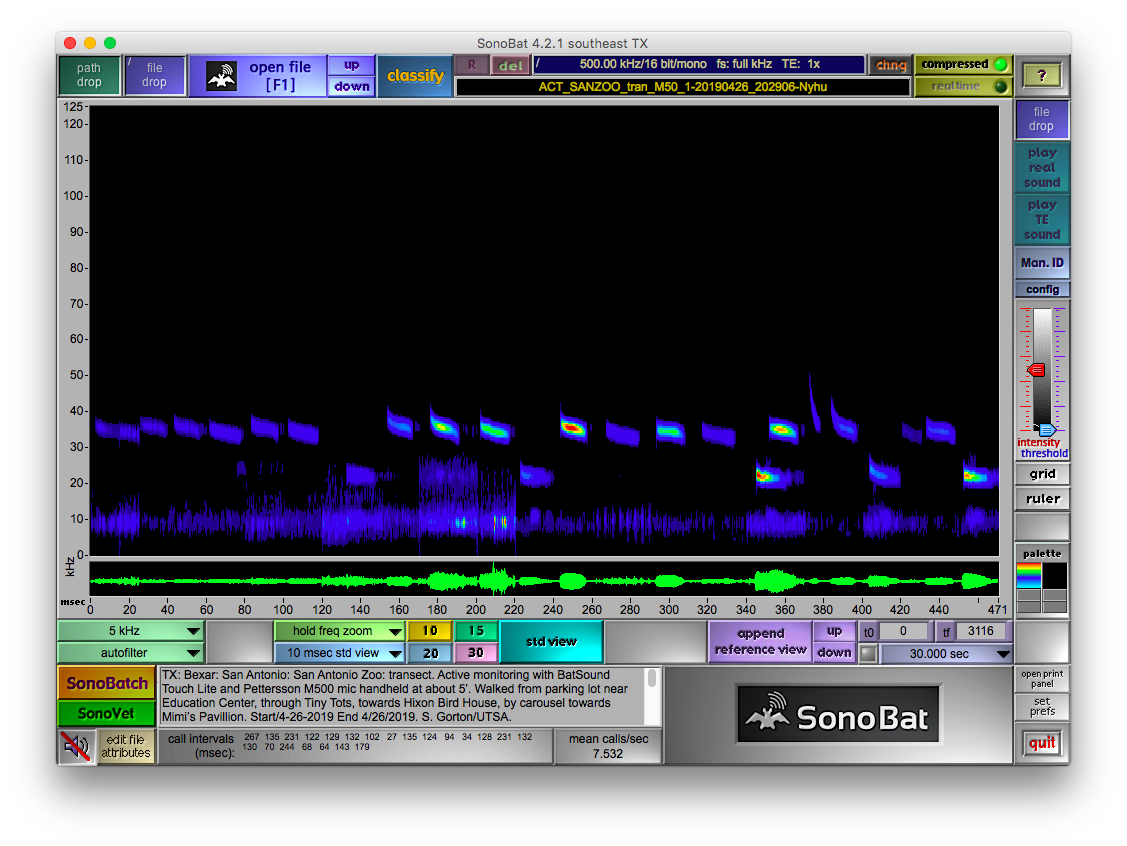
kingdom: Animalia
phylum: Chordata
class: Mammalia
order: Chiroptera
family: Vespertilionidae
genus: Nycticeius
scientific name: Nycticeius humeralis
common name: Evening bat
